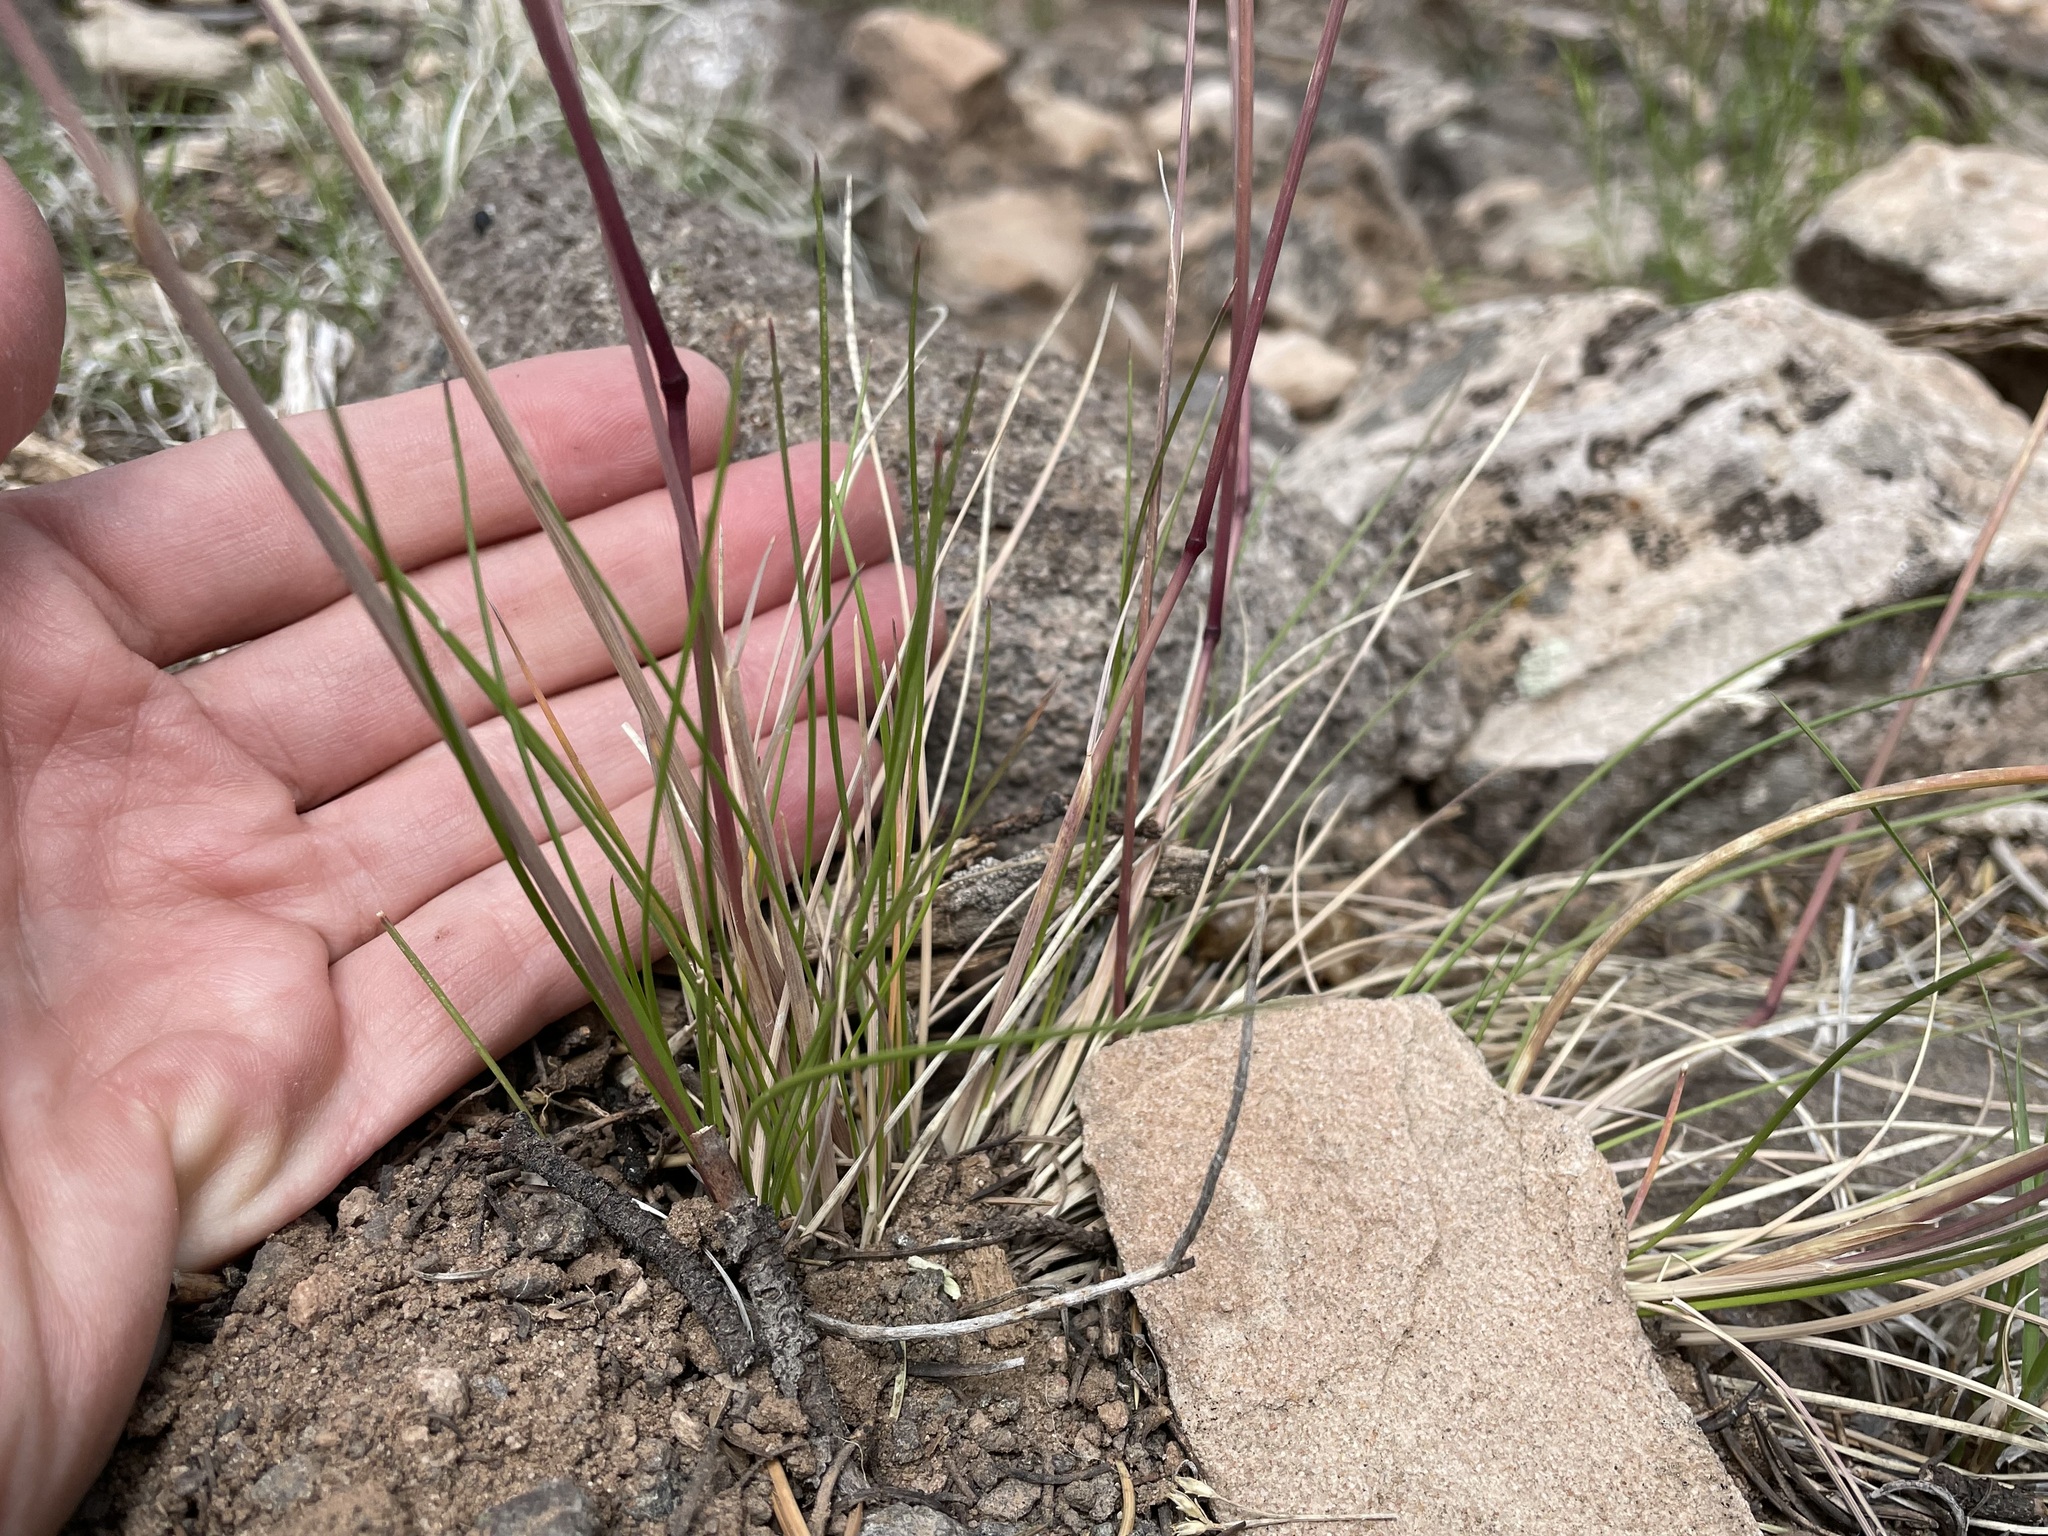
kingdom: Plantae
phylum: Tracheophyta
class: Liliopsida
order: Poales
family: Poaceae
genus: Poa
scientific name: Poa fendleriana
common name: Mutton bluegrass
